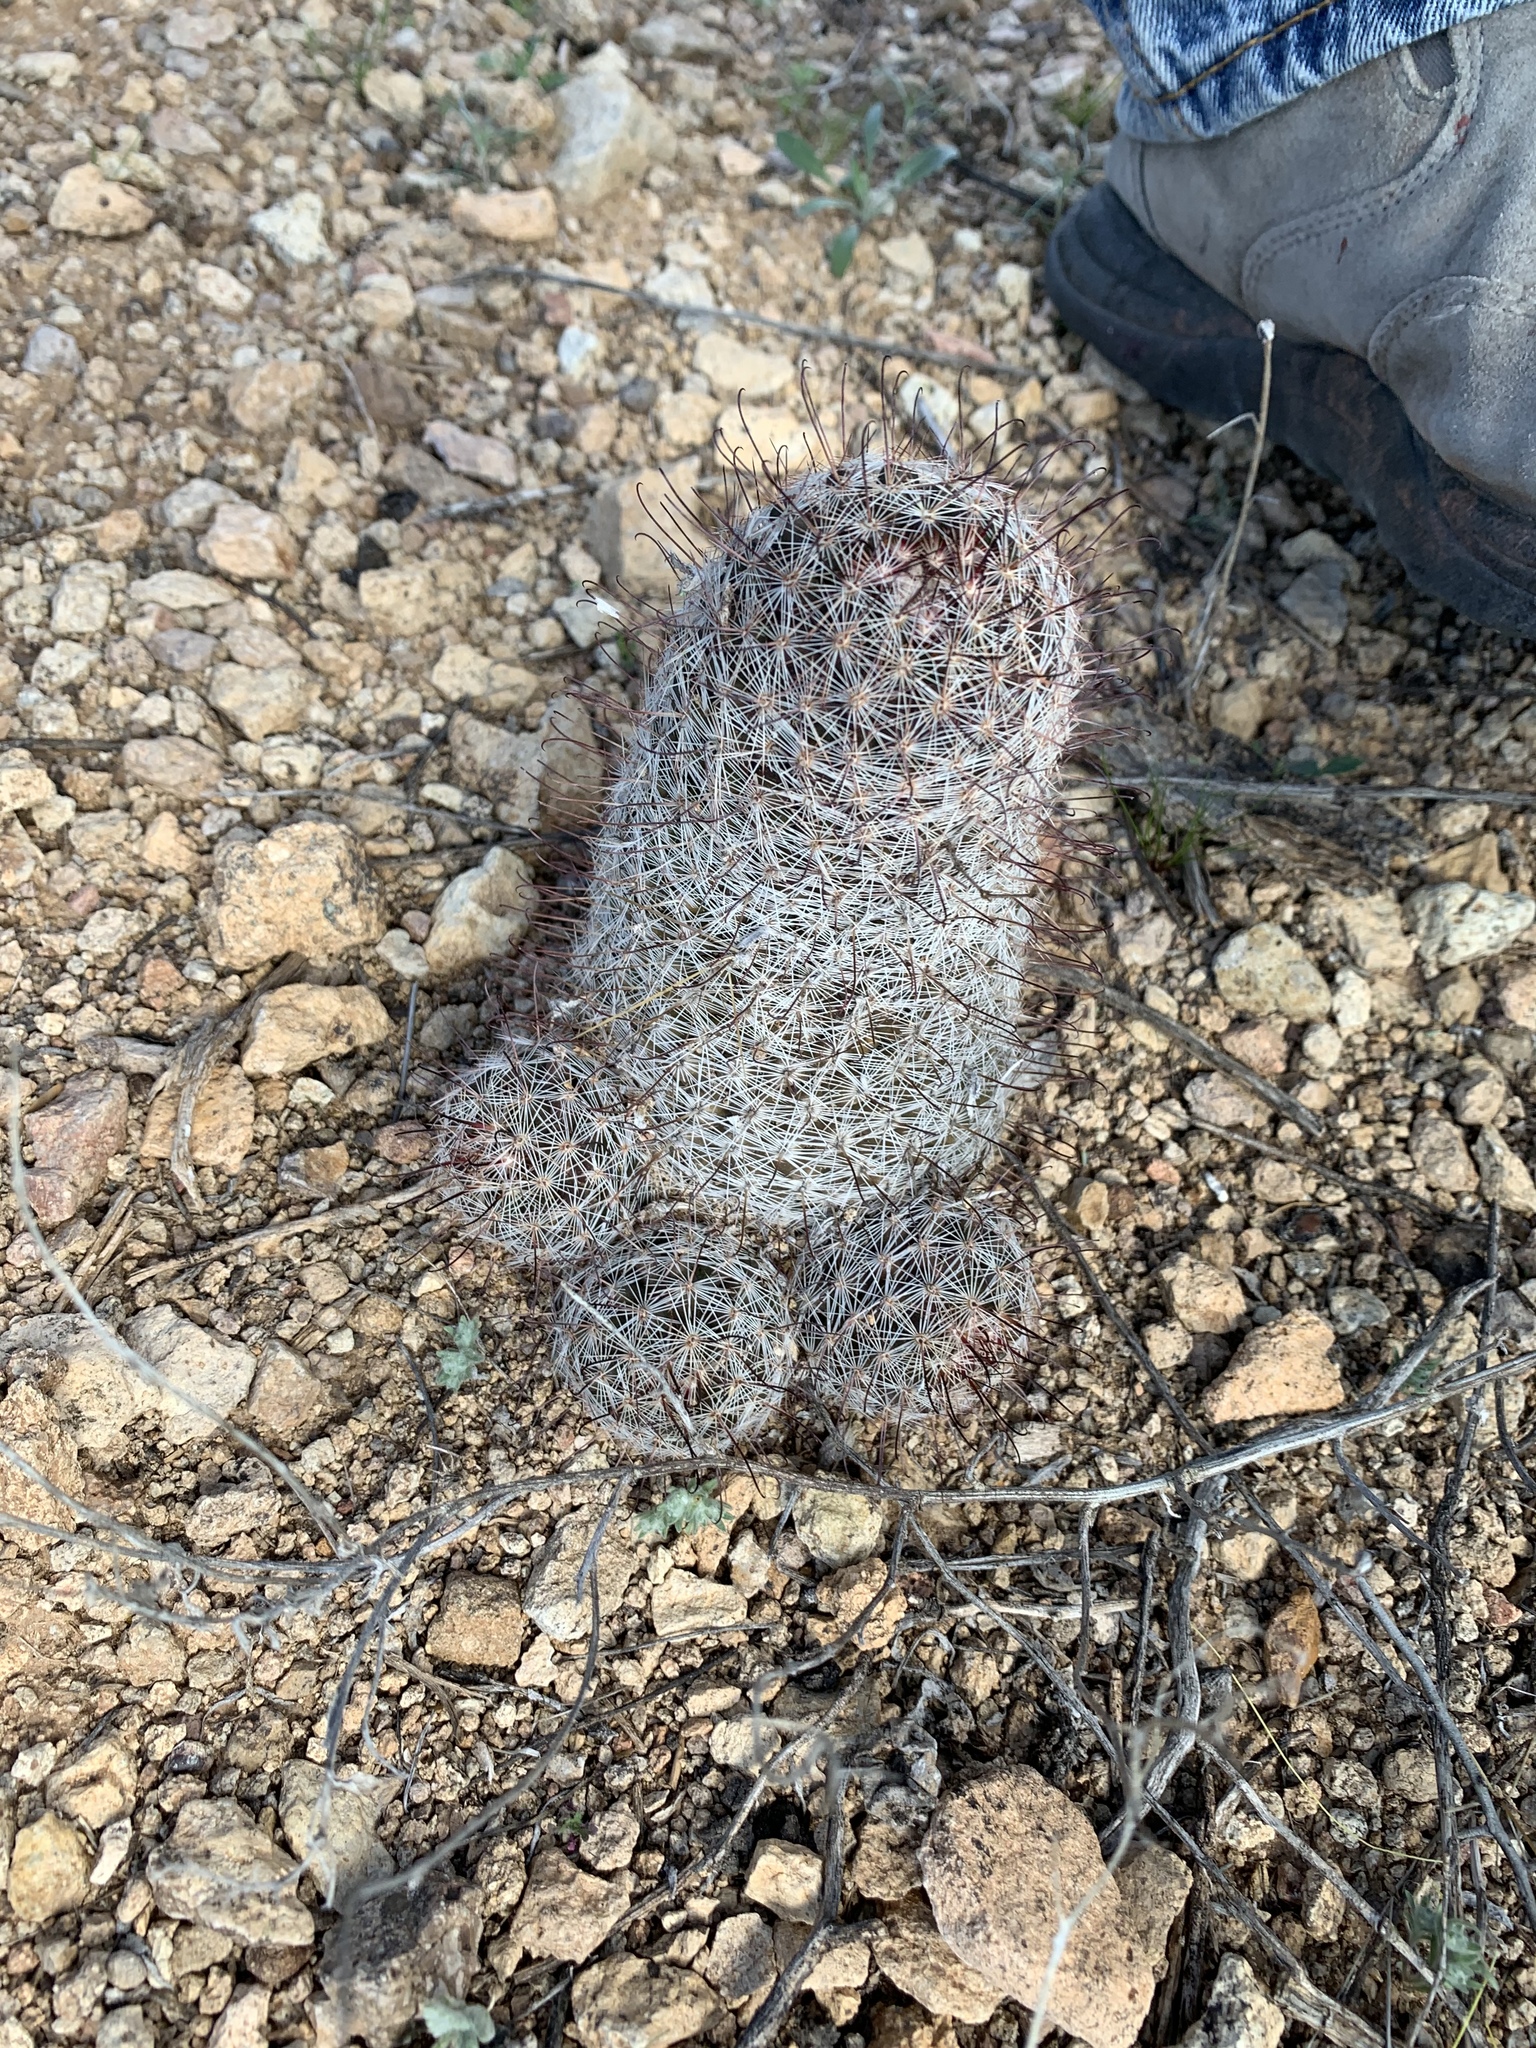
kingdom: Plantae
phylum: Tracheophyta
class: Magnoliopsida
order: Caryophyllales
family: Cactaceae
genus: Cochemiea
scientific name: Cochemiea grahamii
